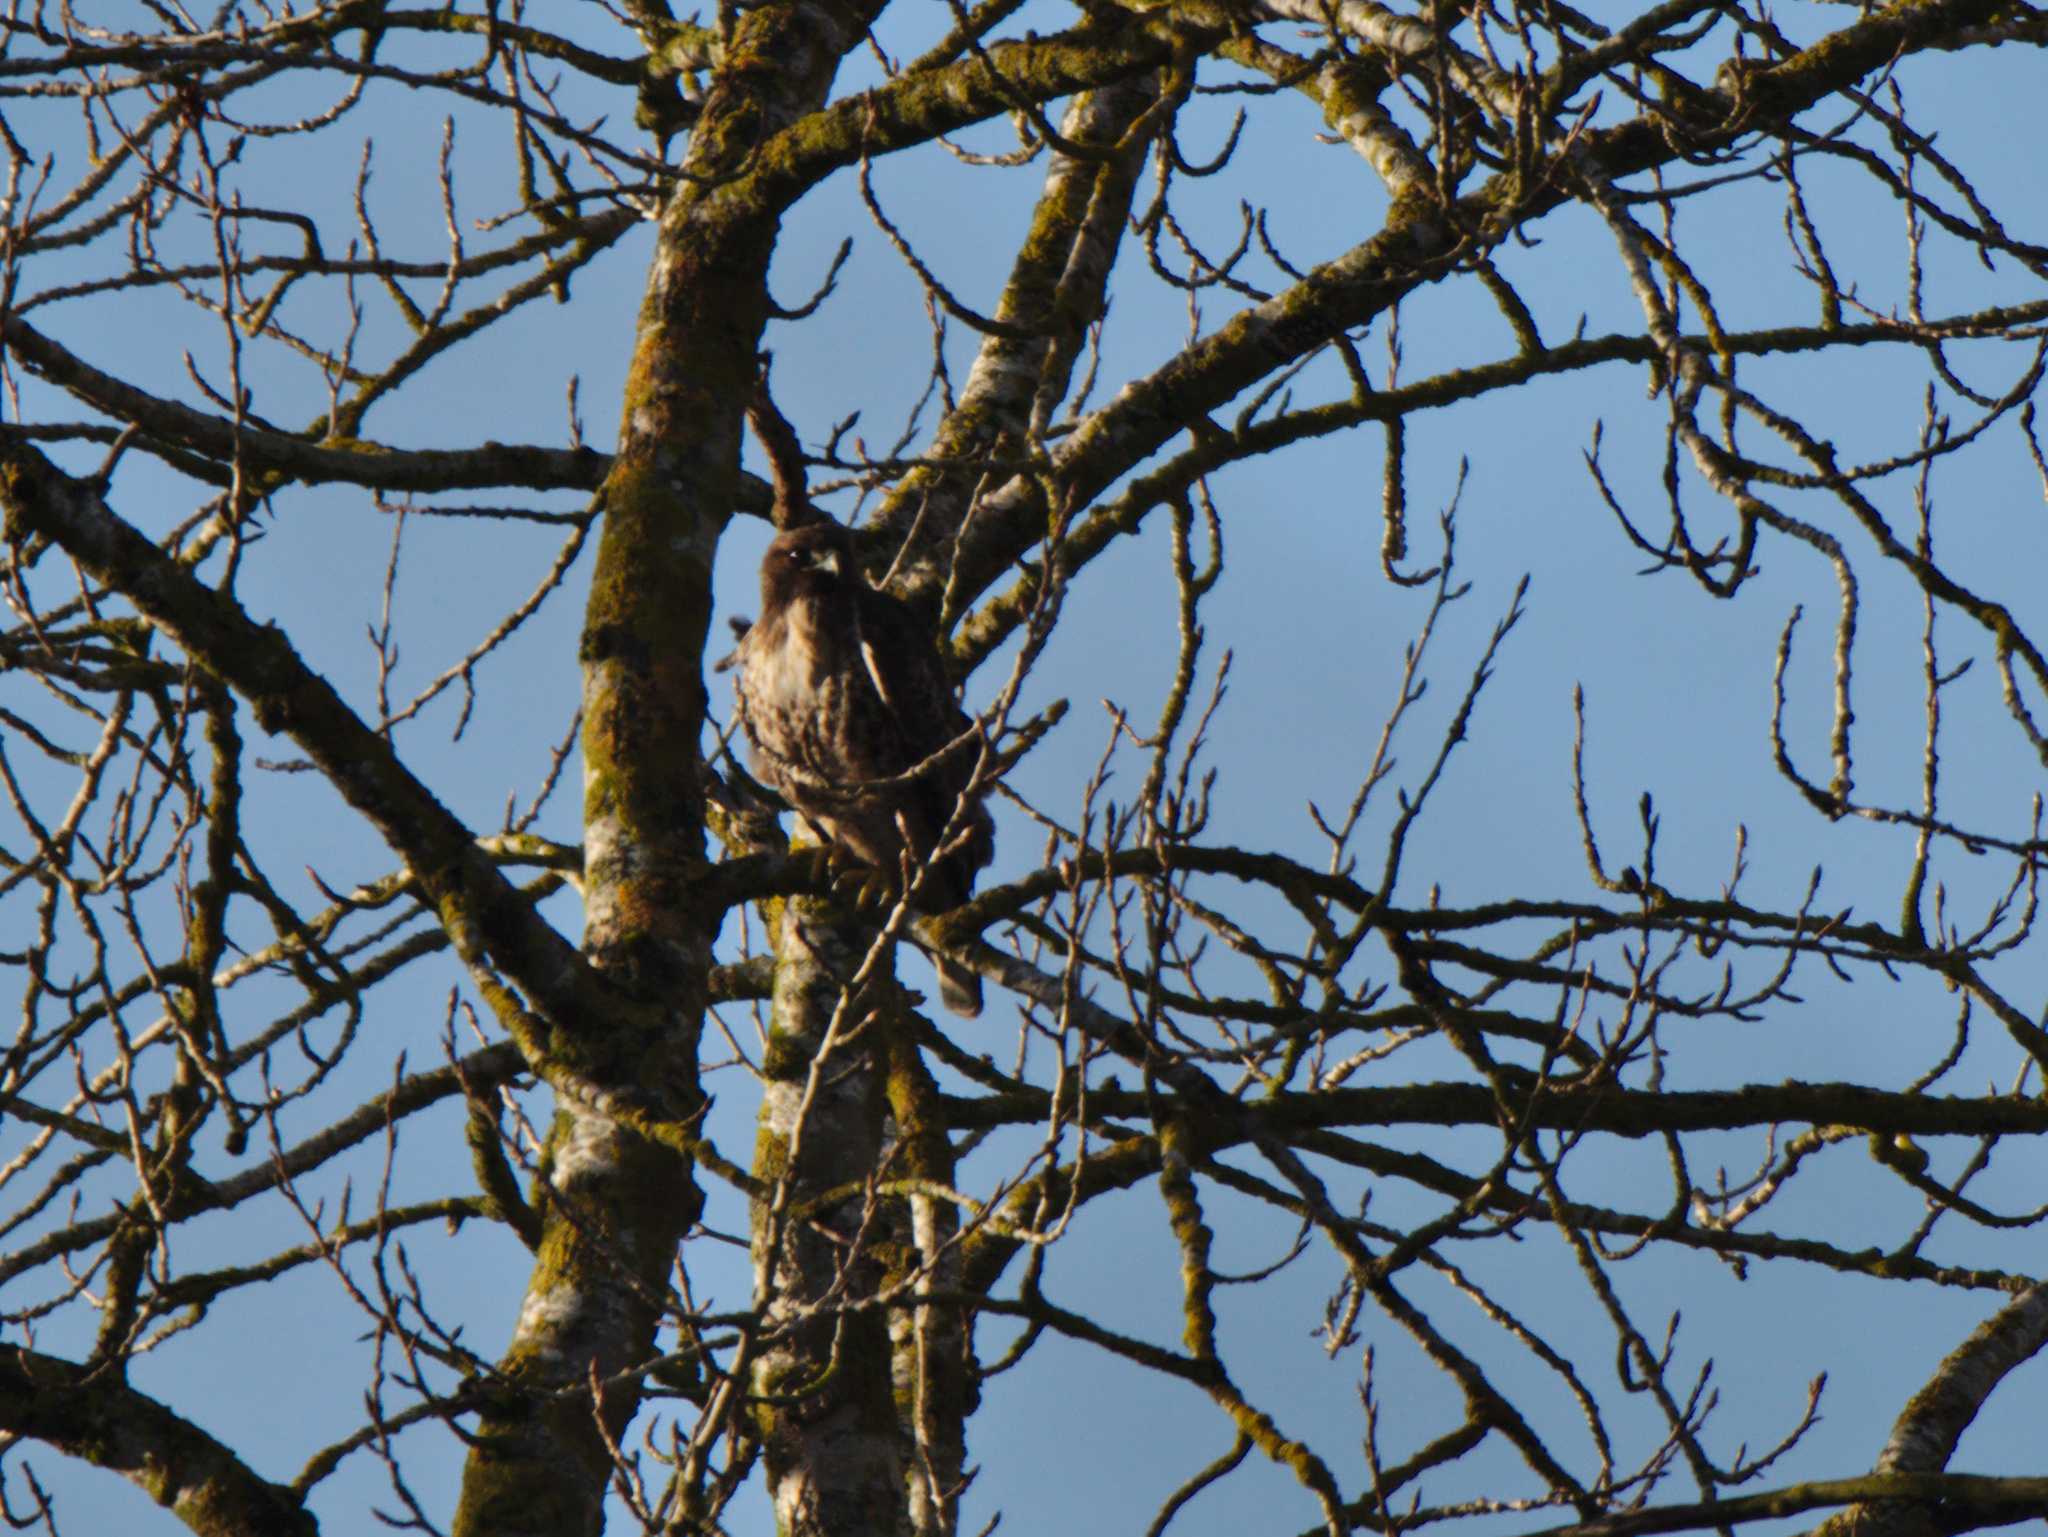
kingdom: Animalia
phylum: Chordata
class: Aves
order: Accipitriformes
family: Accipitridae
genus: Buteo
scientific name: Buteo jamaicensis
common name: Red-tailed hawk
